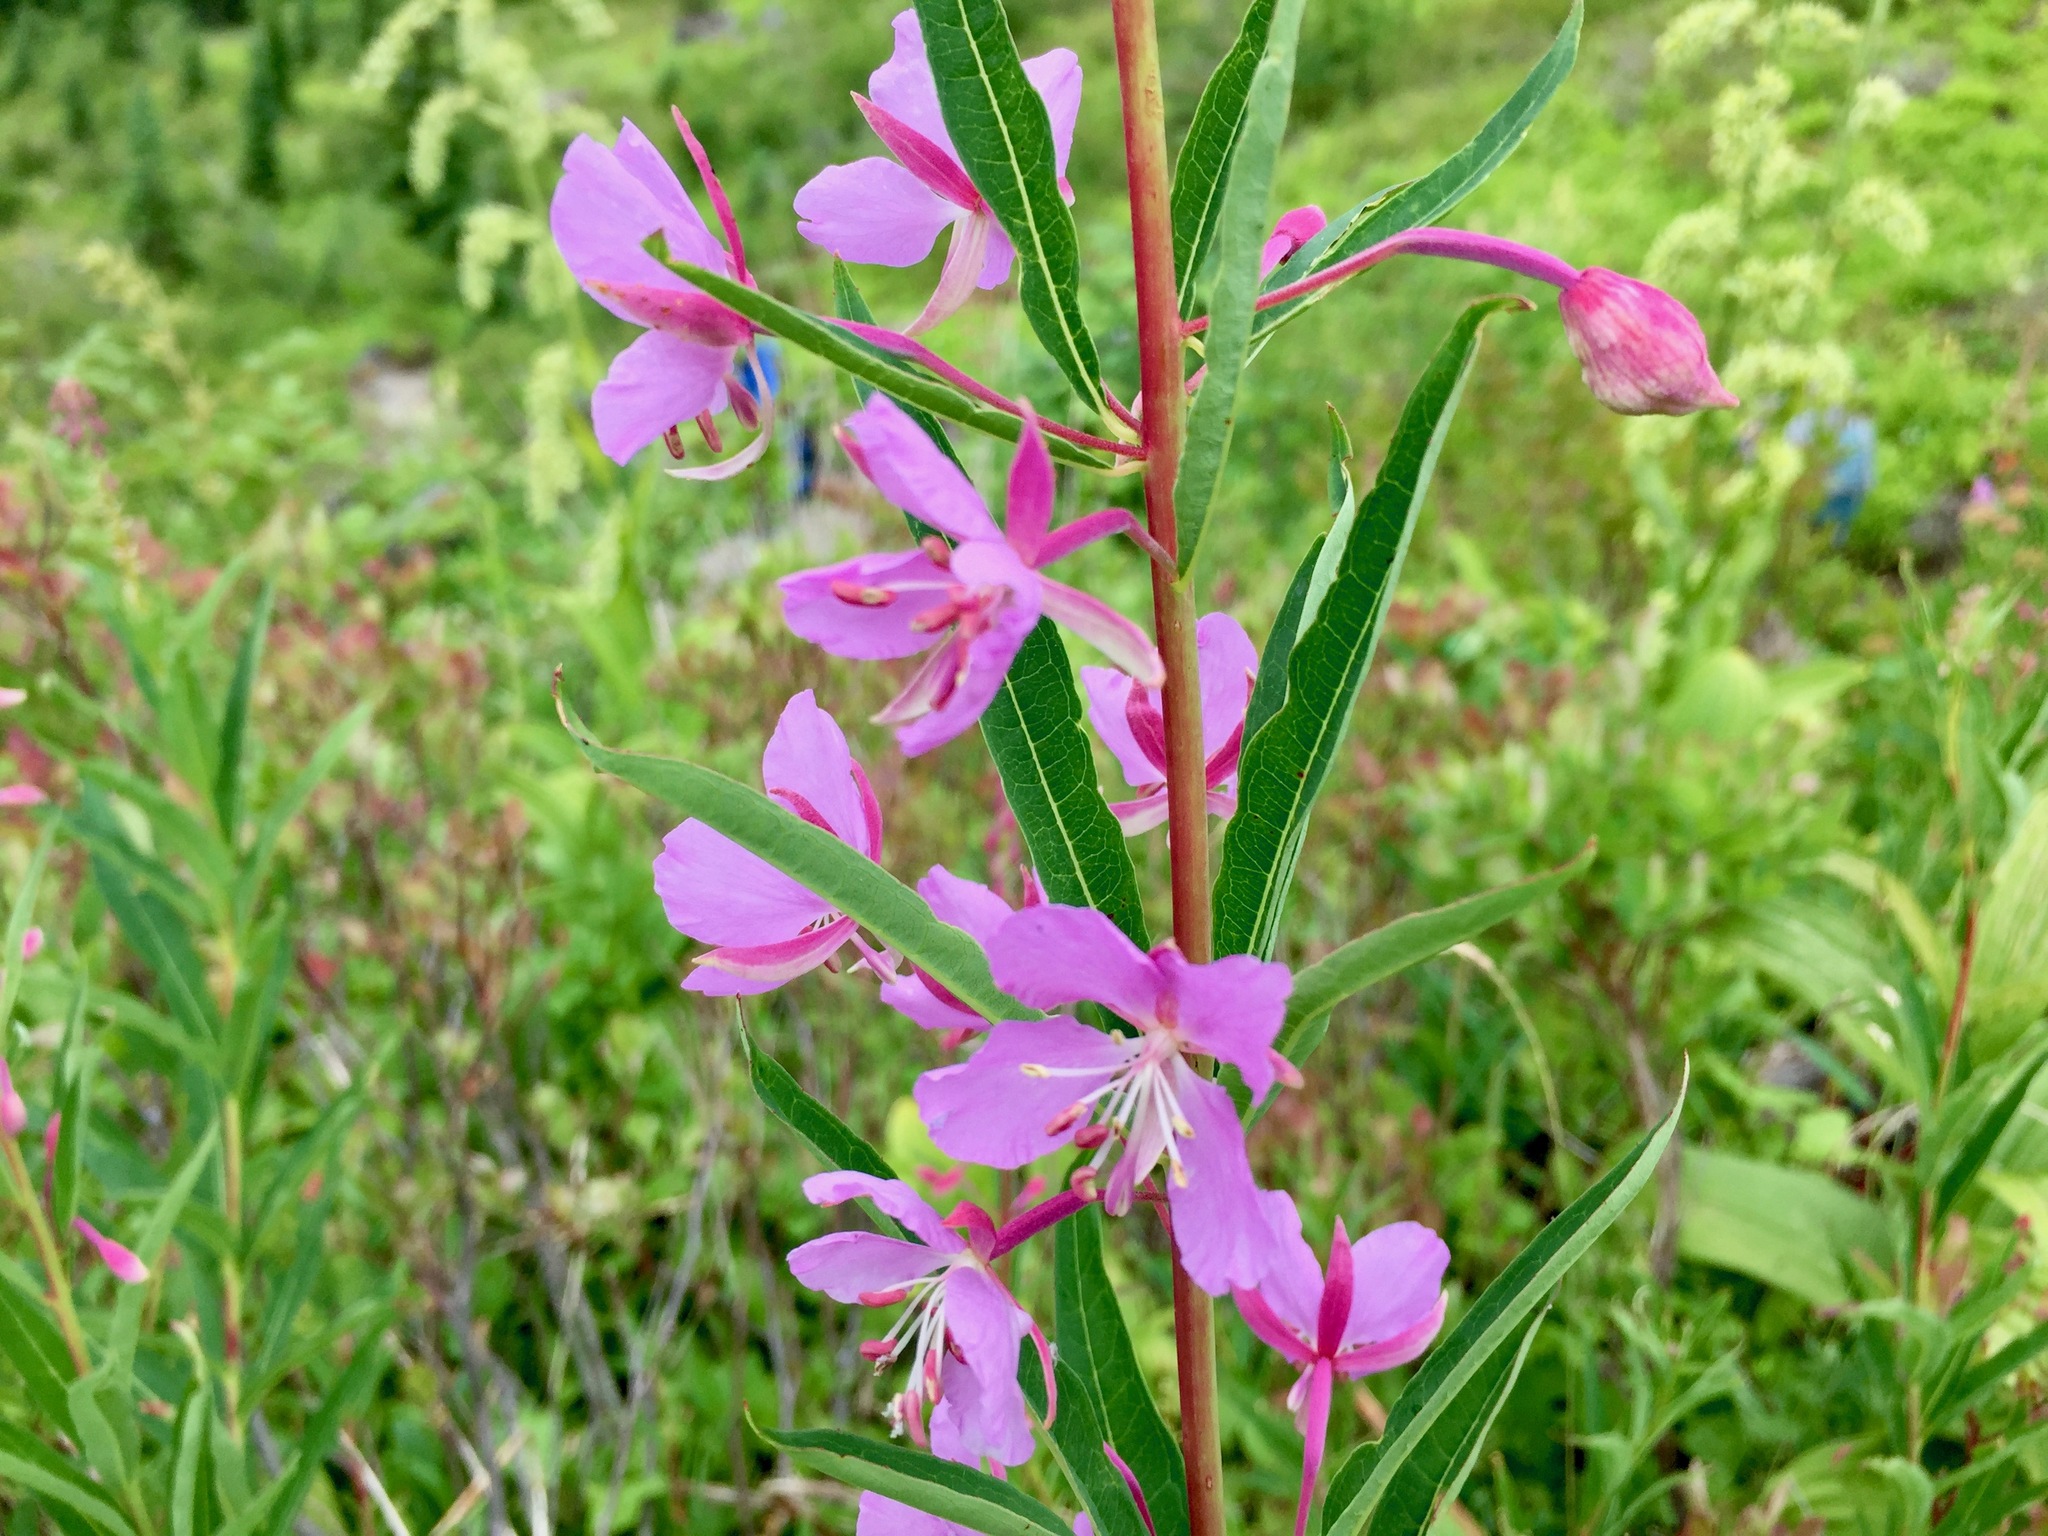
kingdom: Plantae
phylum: Tracheophyta
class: Magnoliopsida
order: Myrtales
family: Onagraceae
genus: Chamaenerion
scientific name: Chamaenerion angustifolium
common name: Fireweed
